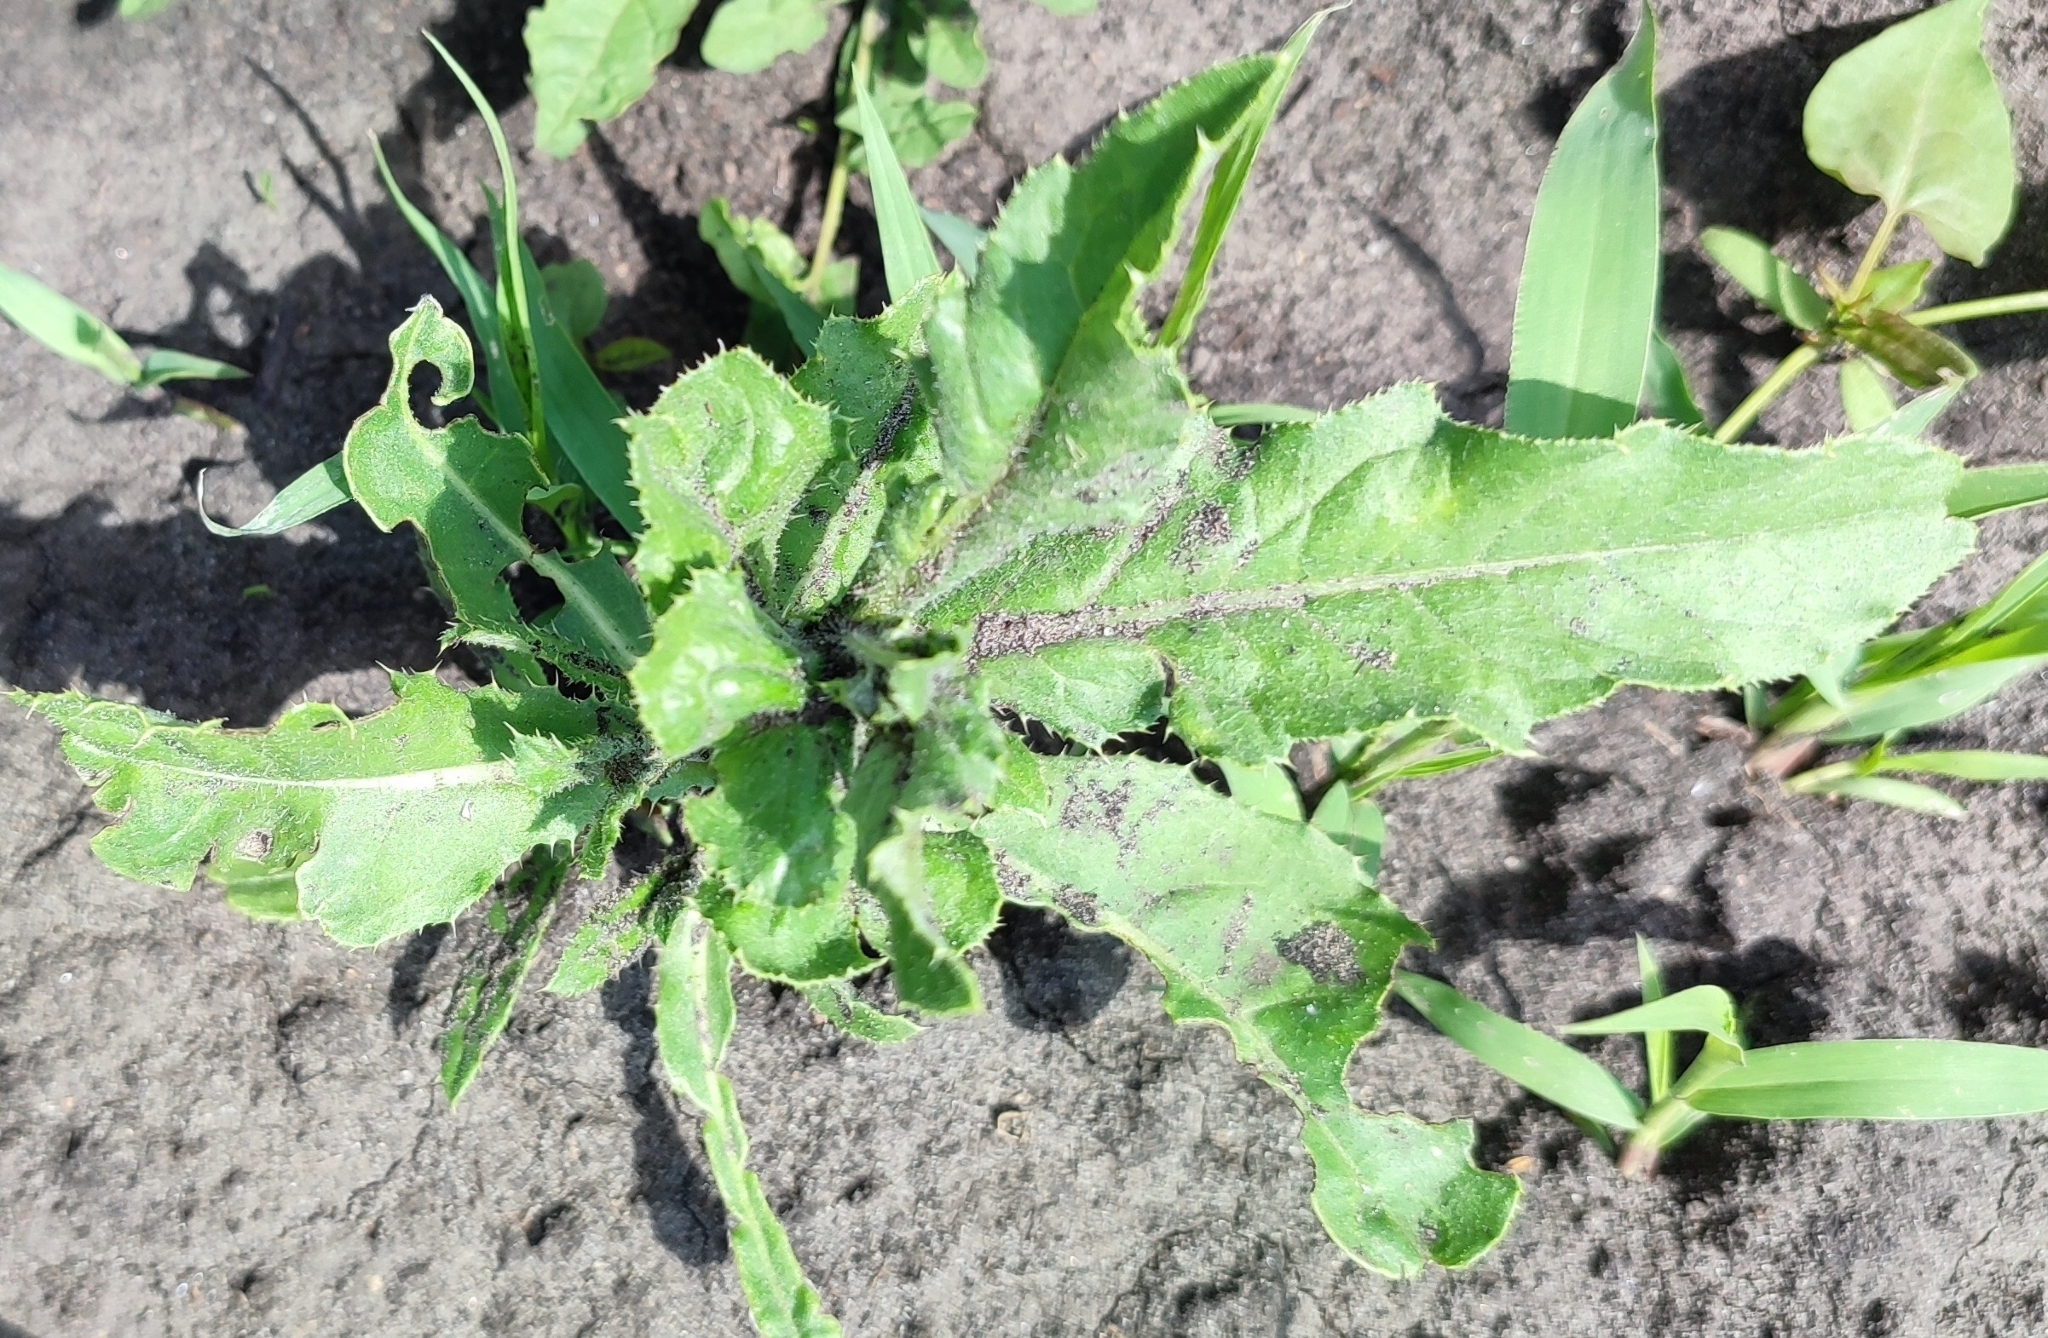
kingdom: Plantae
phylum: Tracheophyta
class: Magnoliopsida
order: Asterales
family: Asteraceae
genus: Cirsium
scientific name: Cirsium arvense
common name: Creeping thistle
